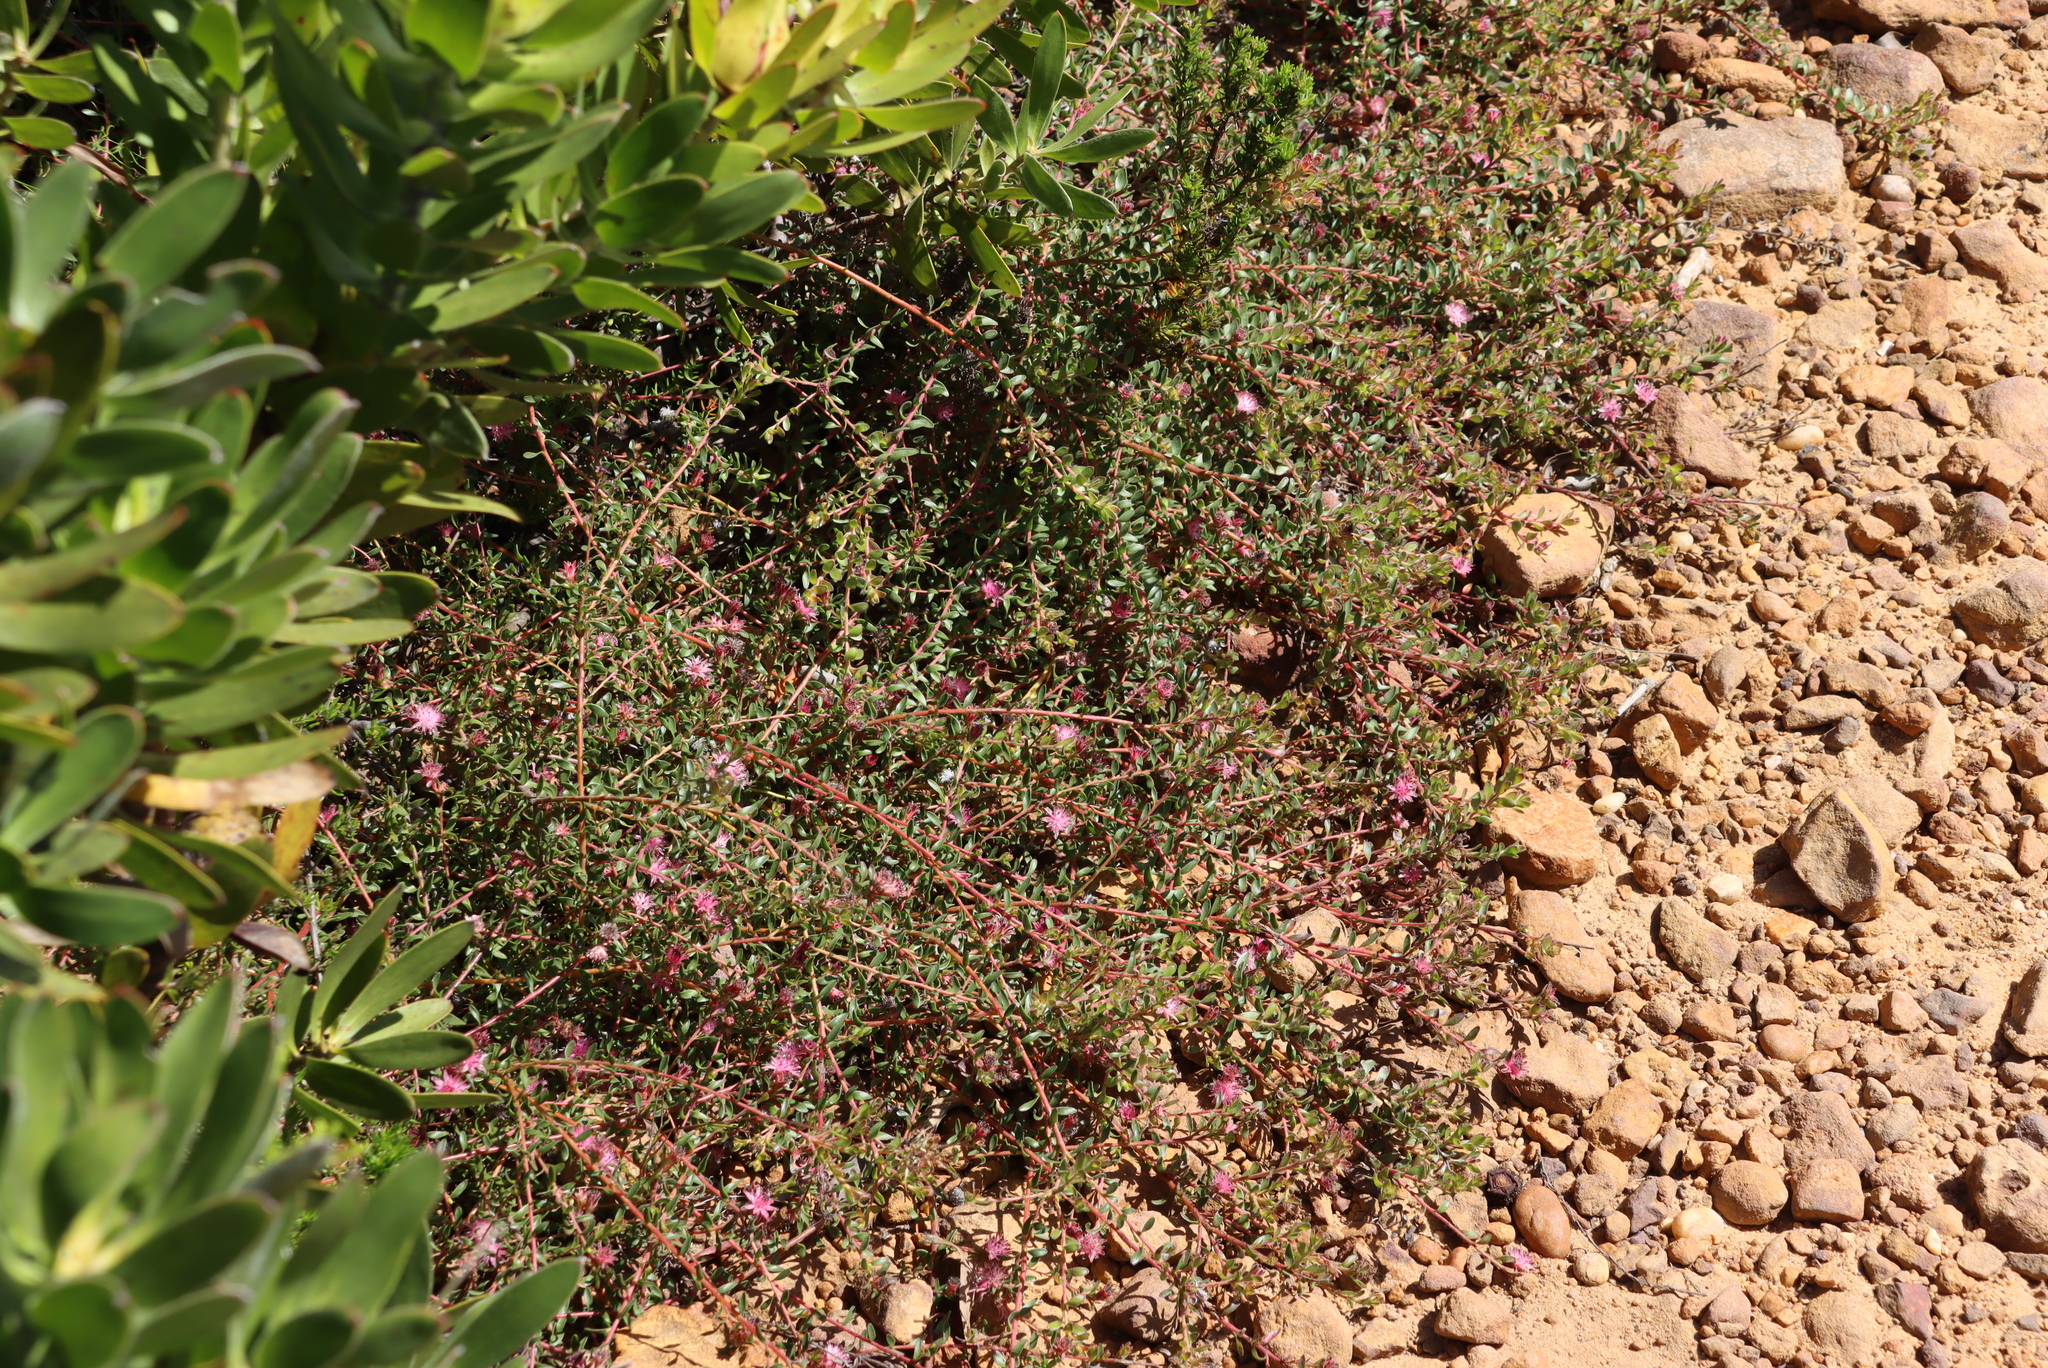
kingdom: Plantae
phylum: Tracheophyta
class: Magnoliopsida
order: Proteales
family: Proteaceae
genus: Diastella
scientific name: Diastella divaricata
